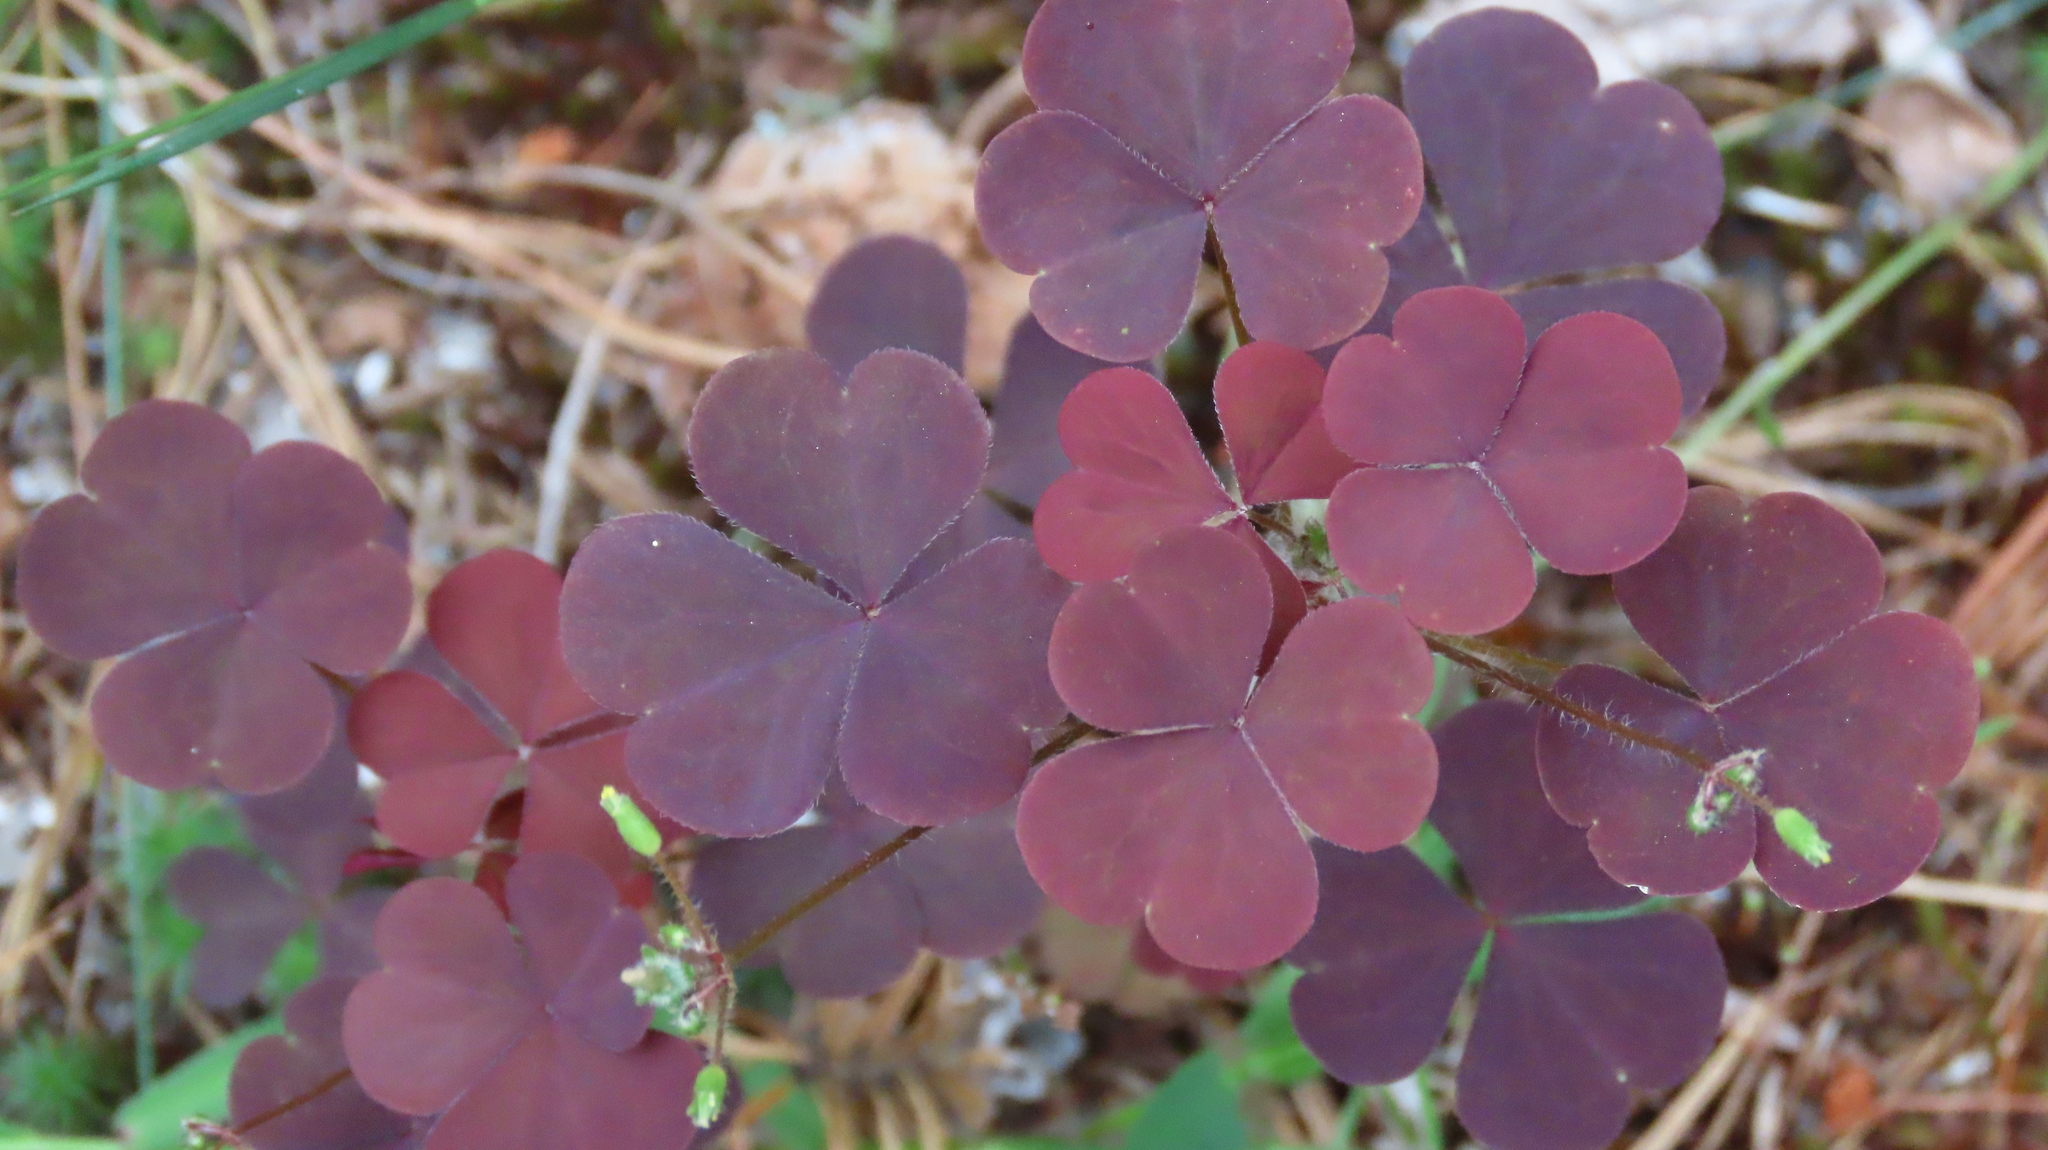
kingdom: Plantae
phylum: Tracheophyta
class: Magnoliopsida
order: Oxalidales
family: Oxalidaceae
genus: Oxalis
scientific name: Oxalis stricta
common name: Upright yellow-sorrel
